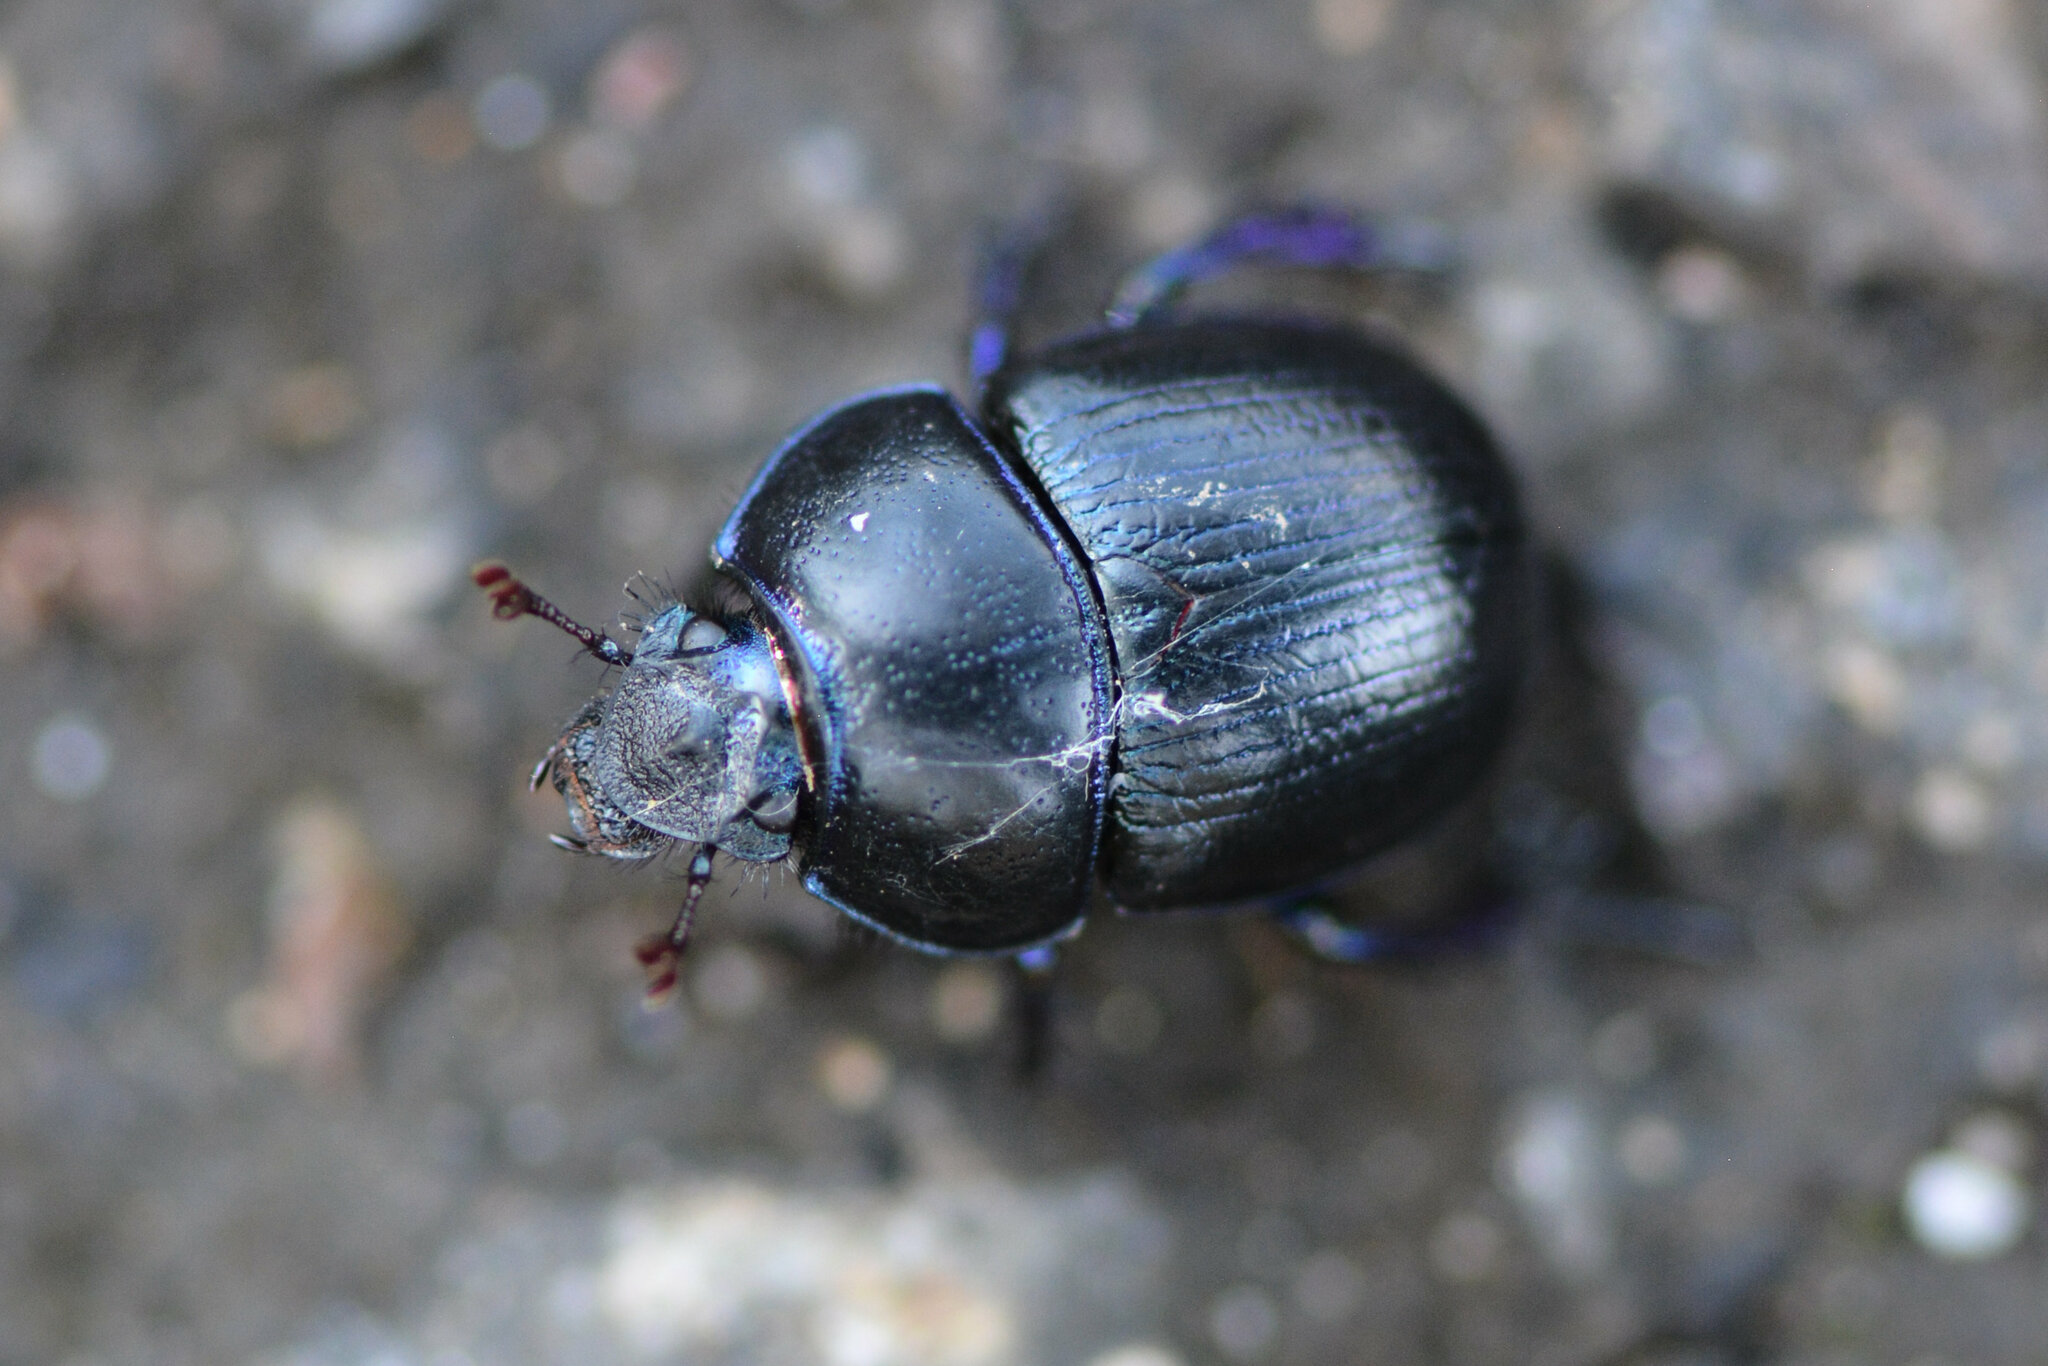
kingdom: Animalia
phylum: Arthropoda
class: Insecta
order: Coleoptera
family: Geotrupidae
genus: Anoplotrupes
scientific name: Anoplotrupes stercorosus
